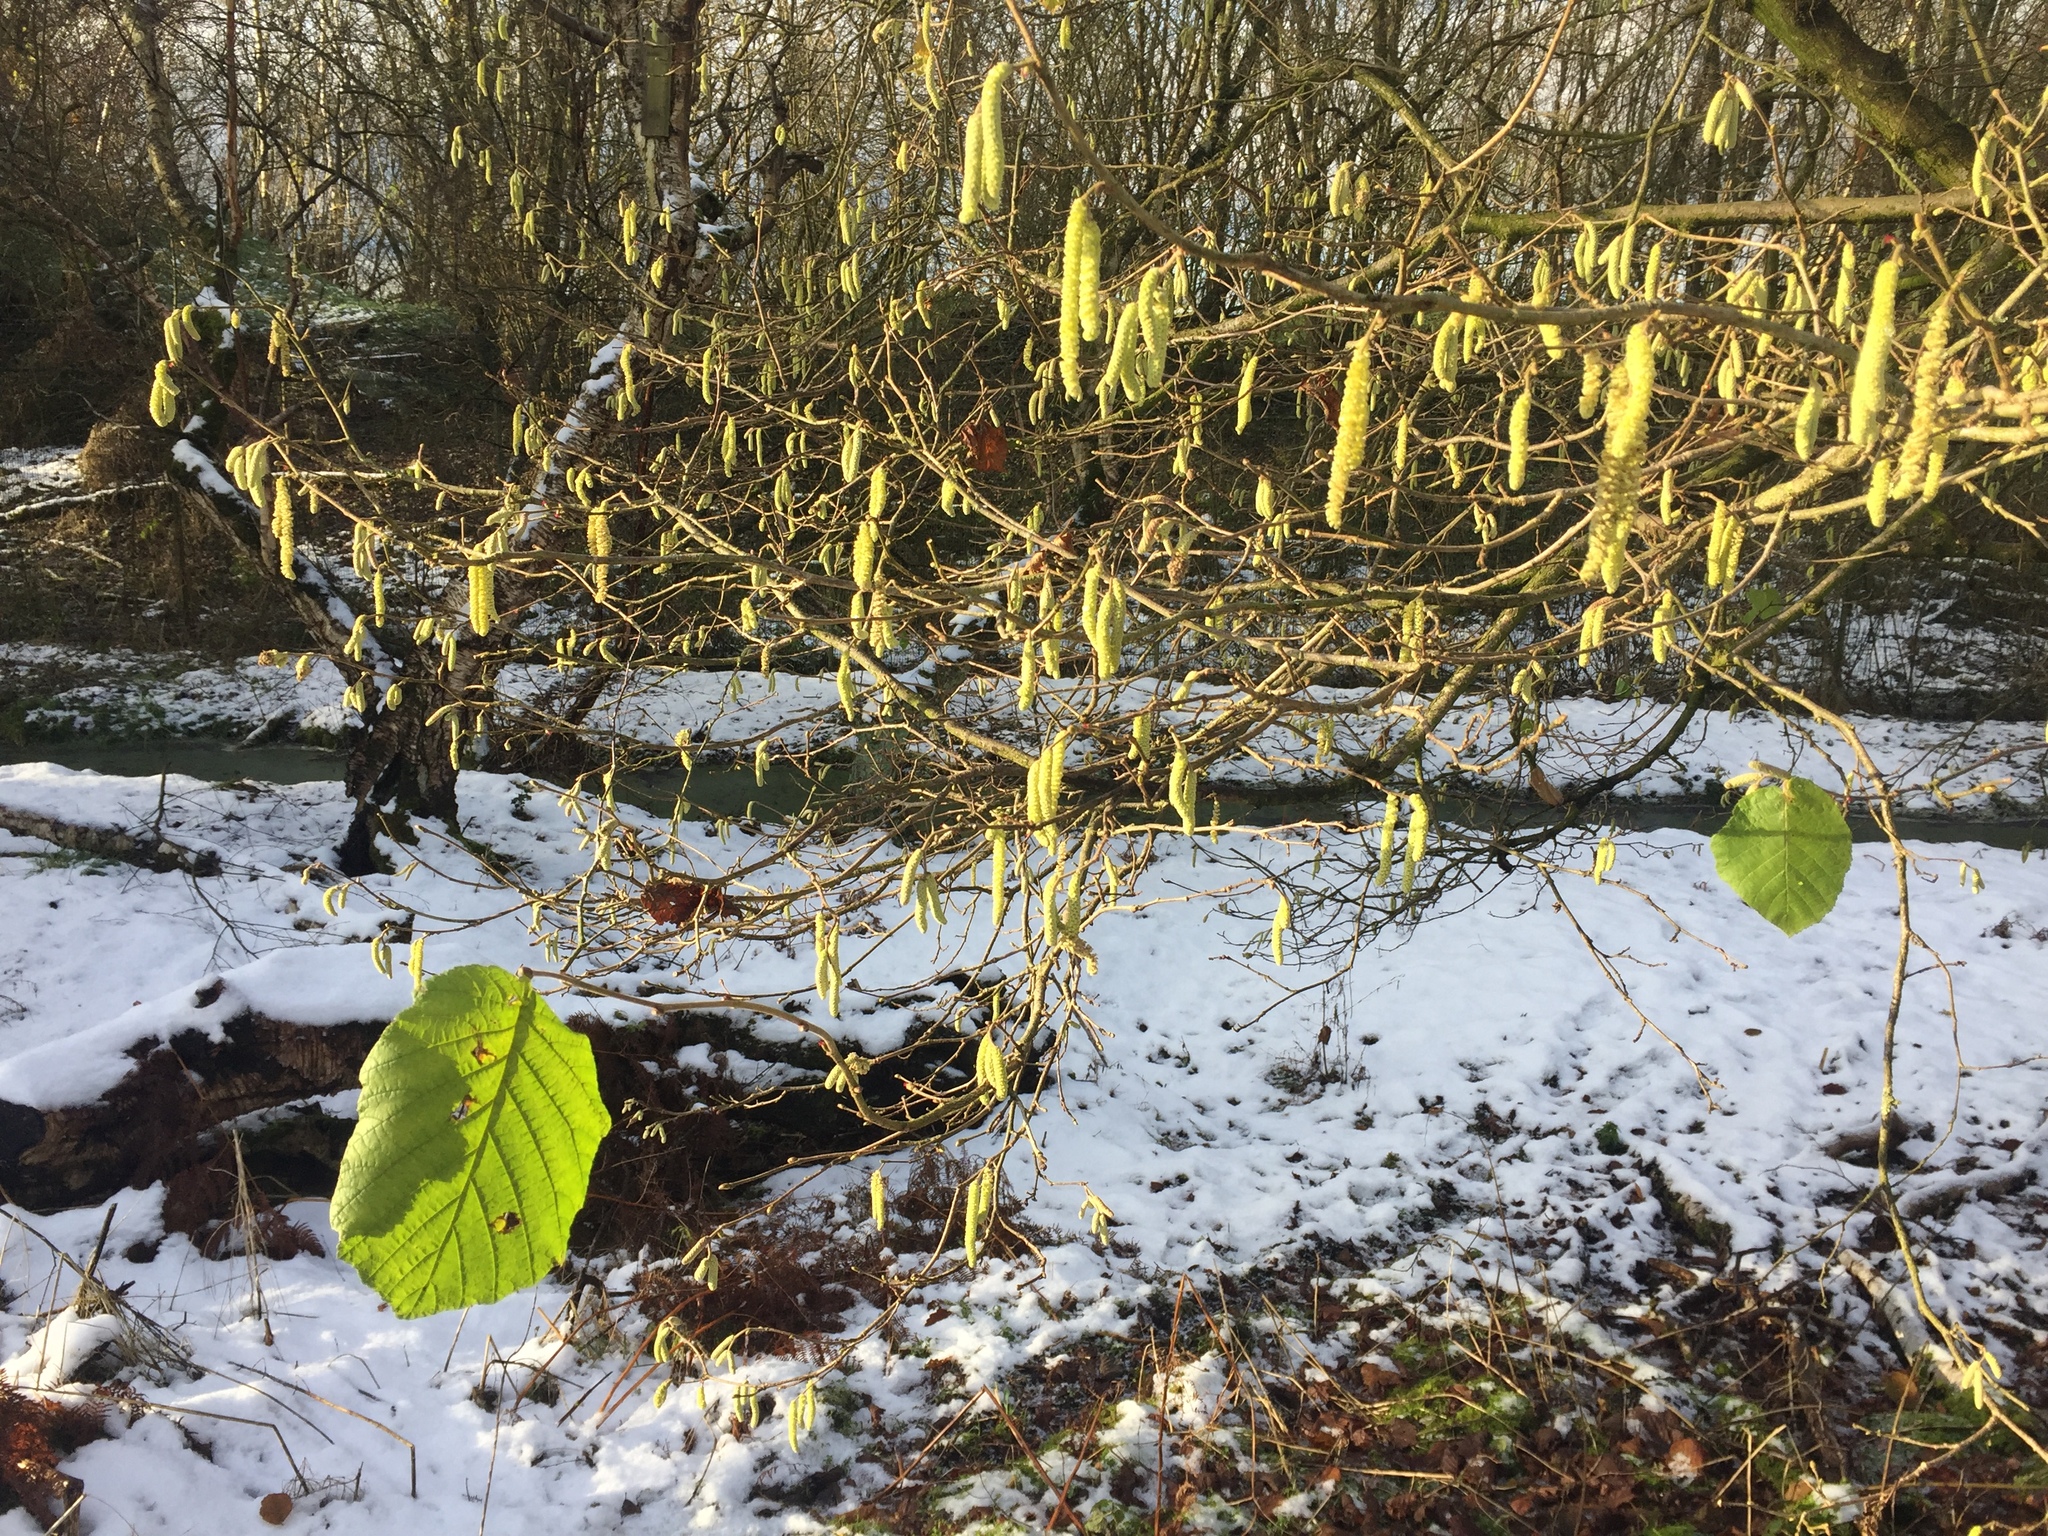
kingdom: Plantae
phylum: Tracheophyta
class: Magnoliopsida
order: Fagales
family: Betulaceae
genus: Corylus
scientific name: Corylus avellana
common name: European hazel
